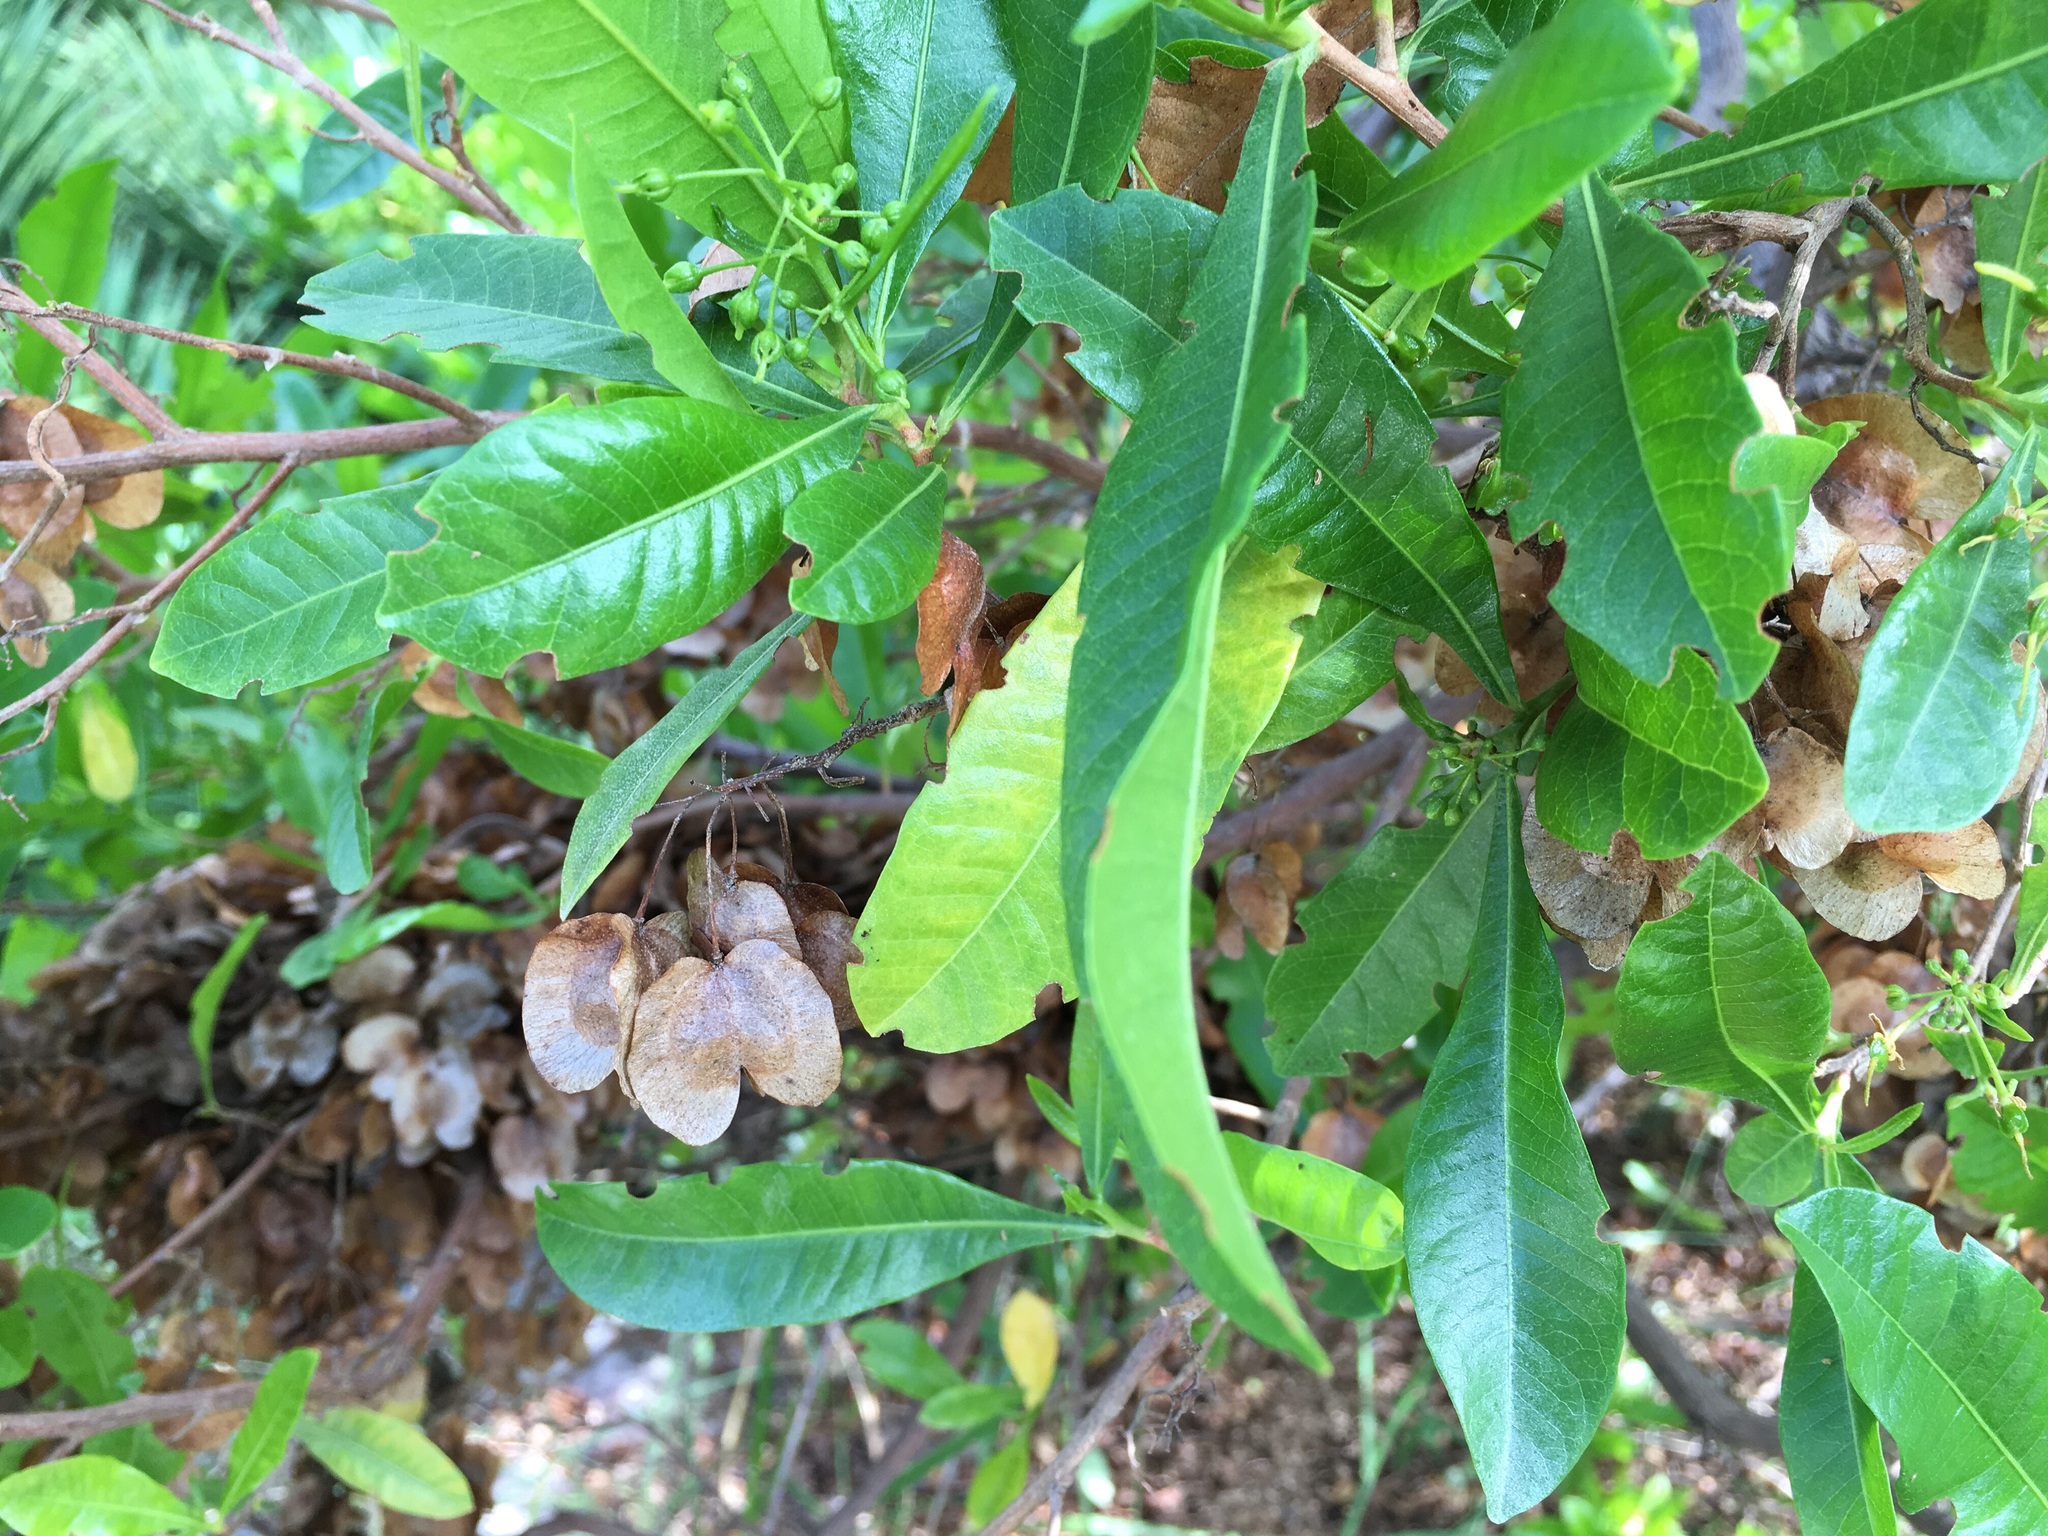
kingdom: Plantae
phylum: Tracheophyta
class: Magnoliopsida
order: Sapindales
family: Sapindaceae
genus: Dodonaea
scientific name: Dodonaea viscosa
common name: Hopbush
